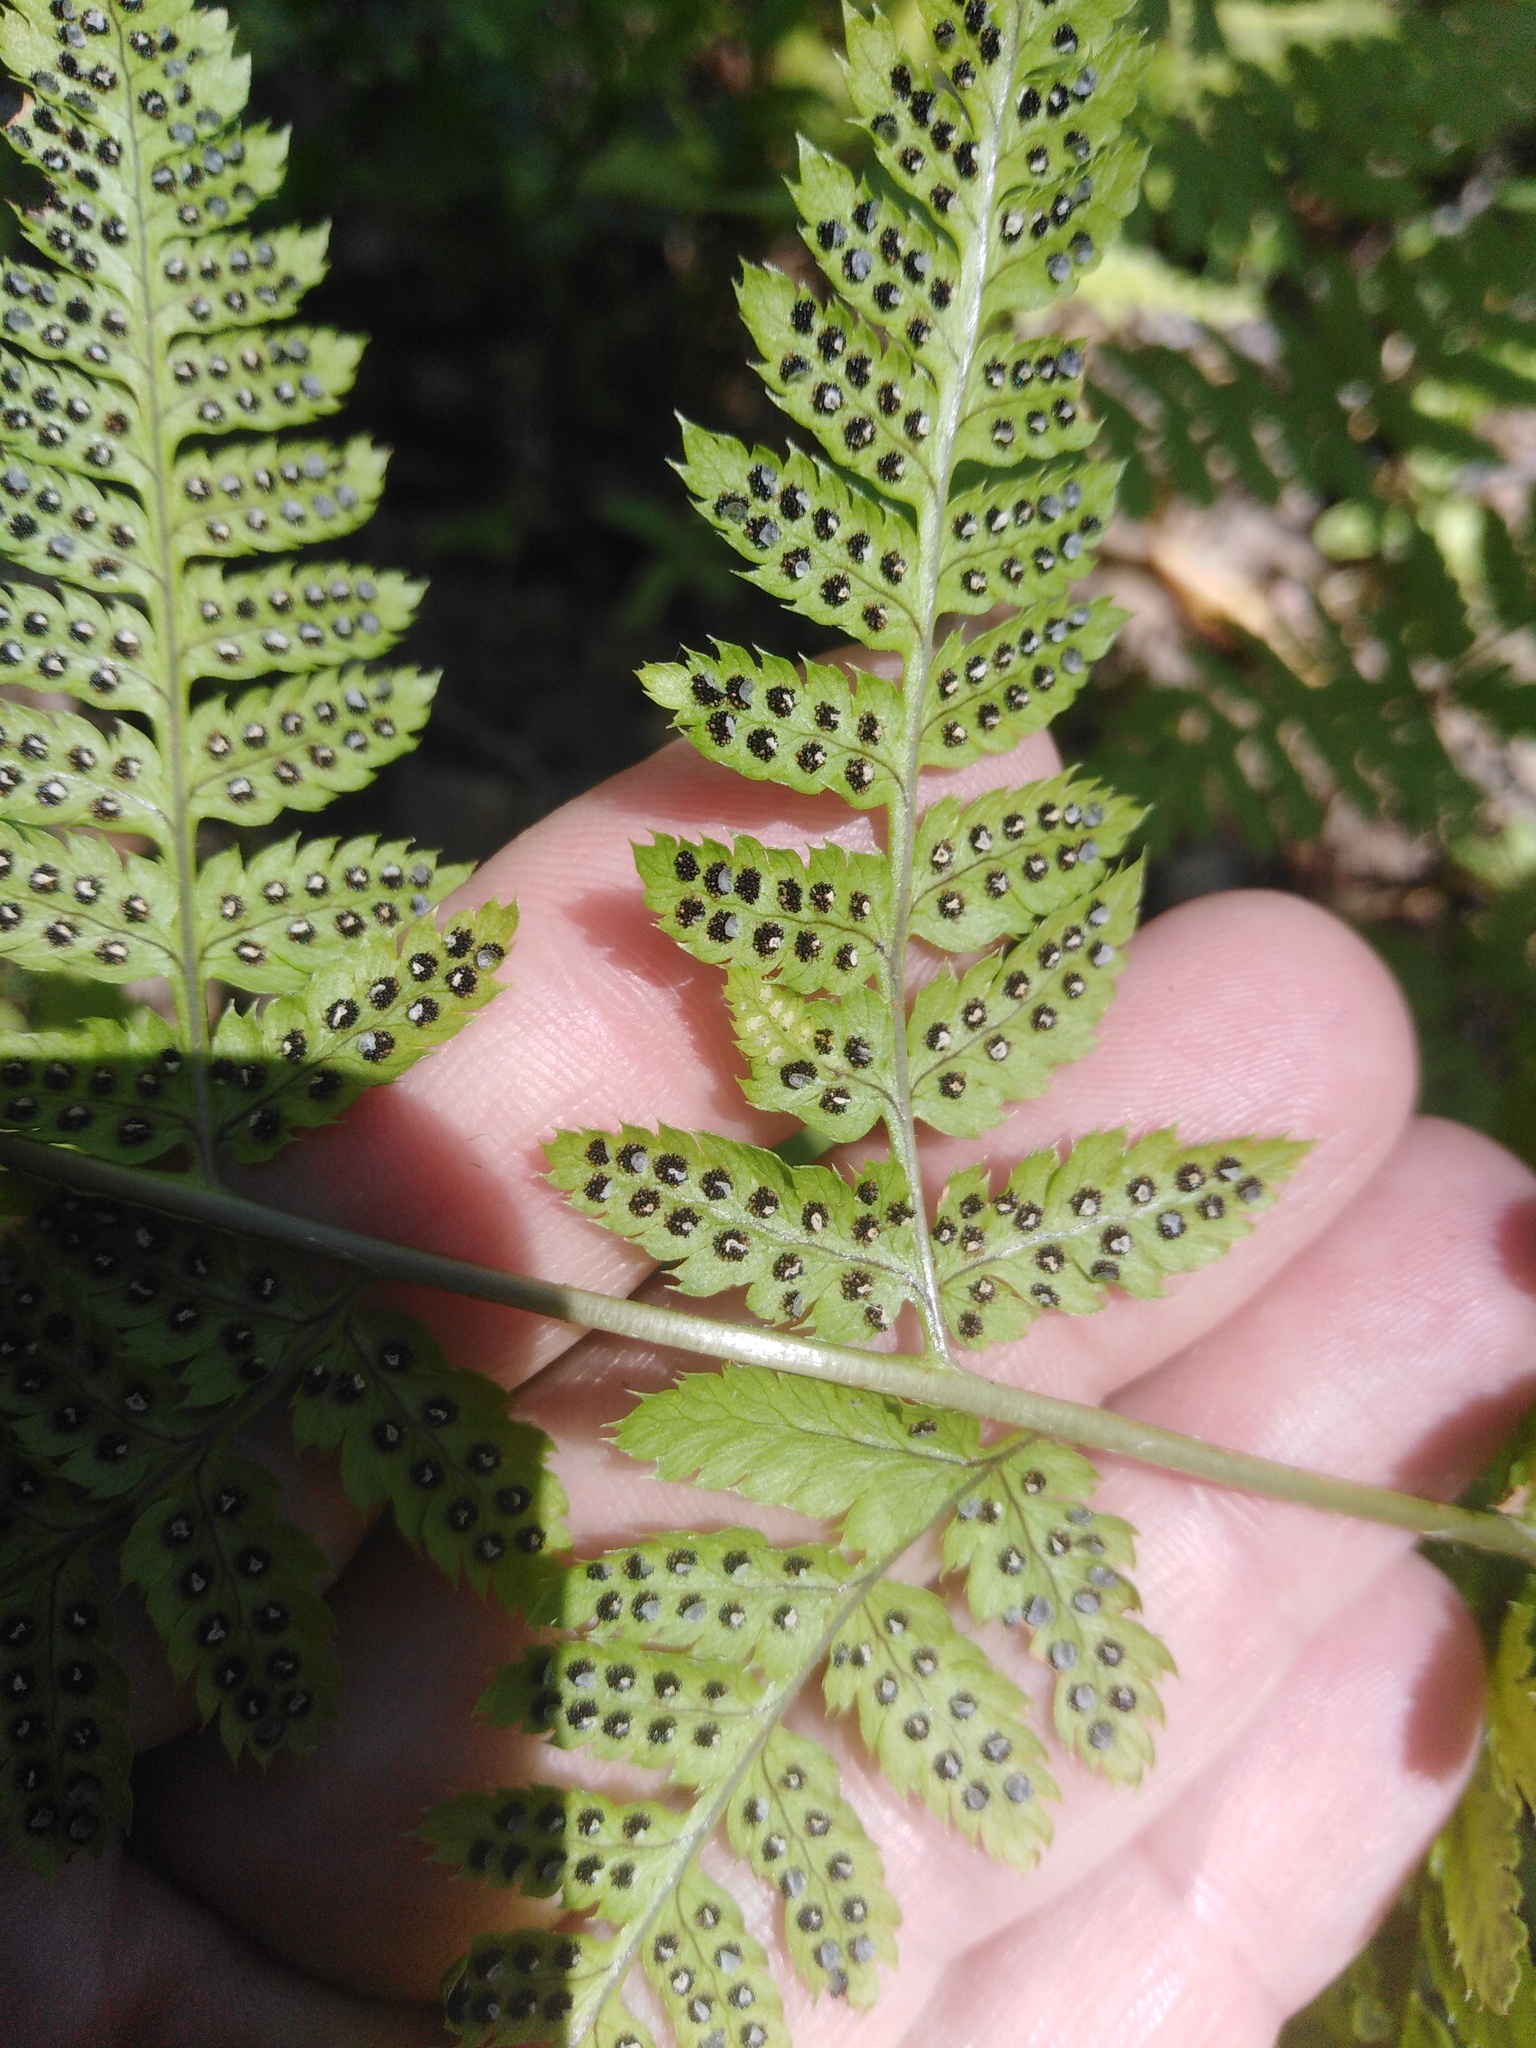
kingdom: Plantae
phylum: Tracheophyta
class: Polypodiopsida
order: Polypodiales
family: Dryopteridaceae
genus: Dryopteris
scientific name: Dryopteris carthusiana
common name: Narrow buckler-fern
